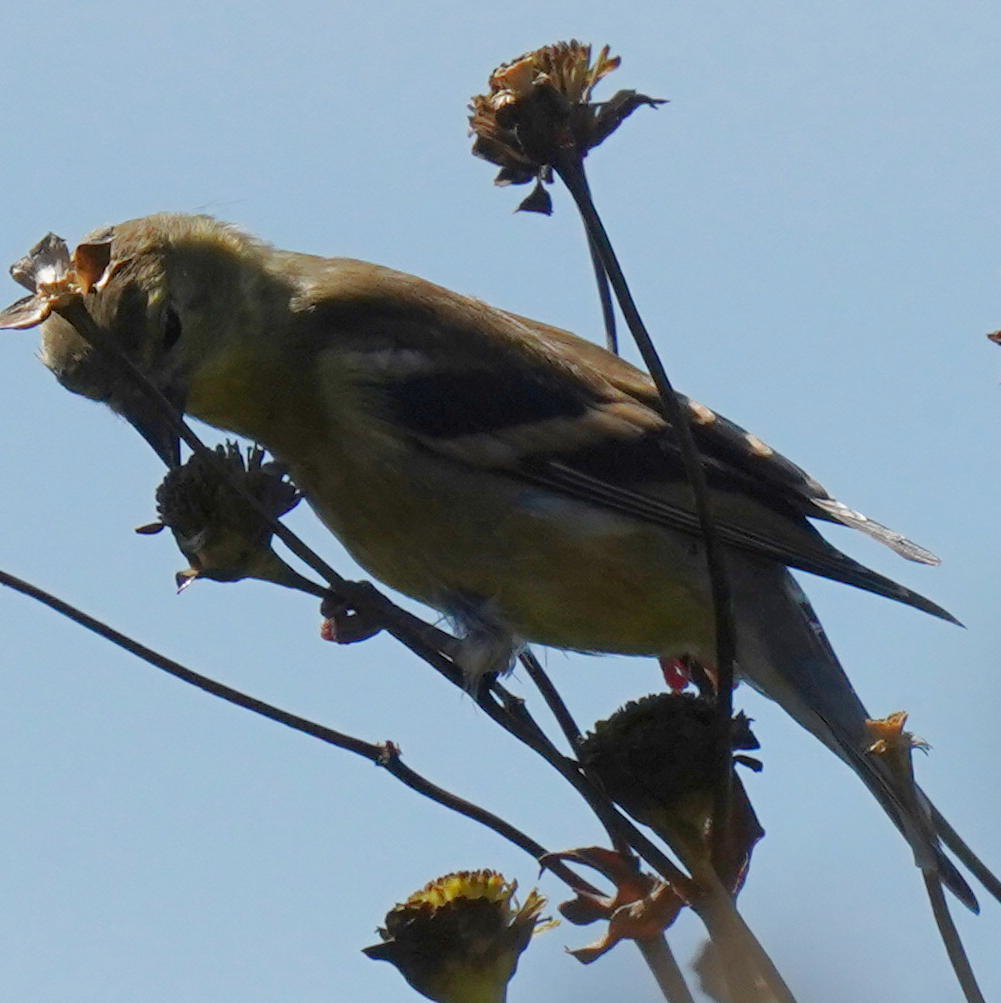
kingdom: Animalia
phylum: Chordata
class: Aves
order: Passeriformes
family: Fringillidae
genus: Spinus
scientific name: Spinus tristis
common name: American goldfinch
